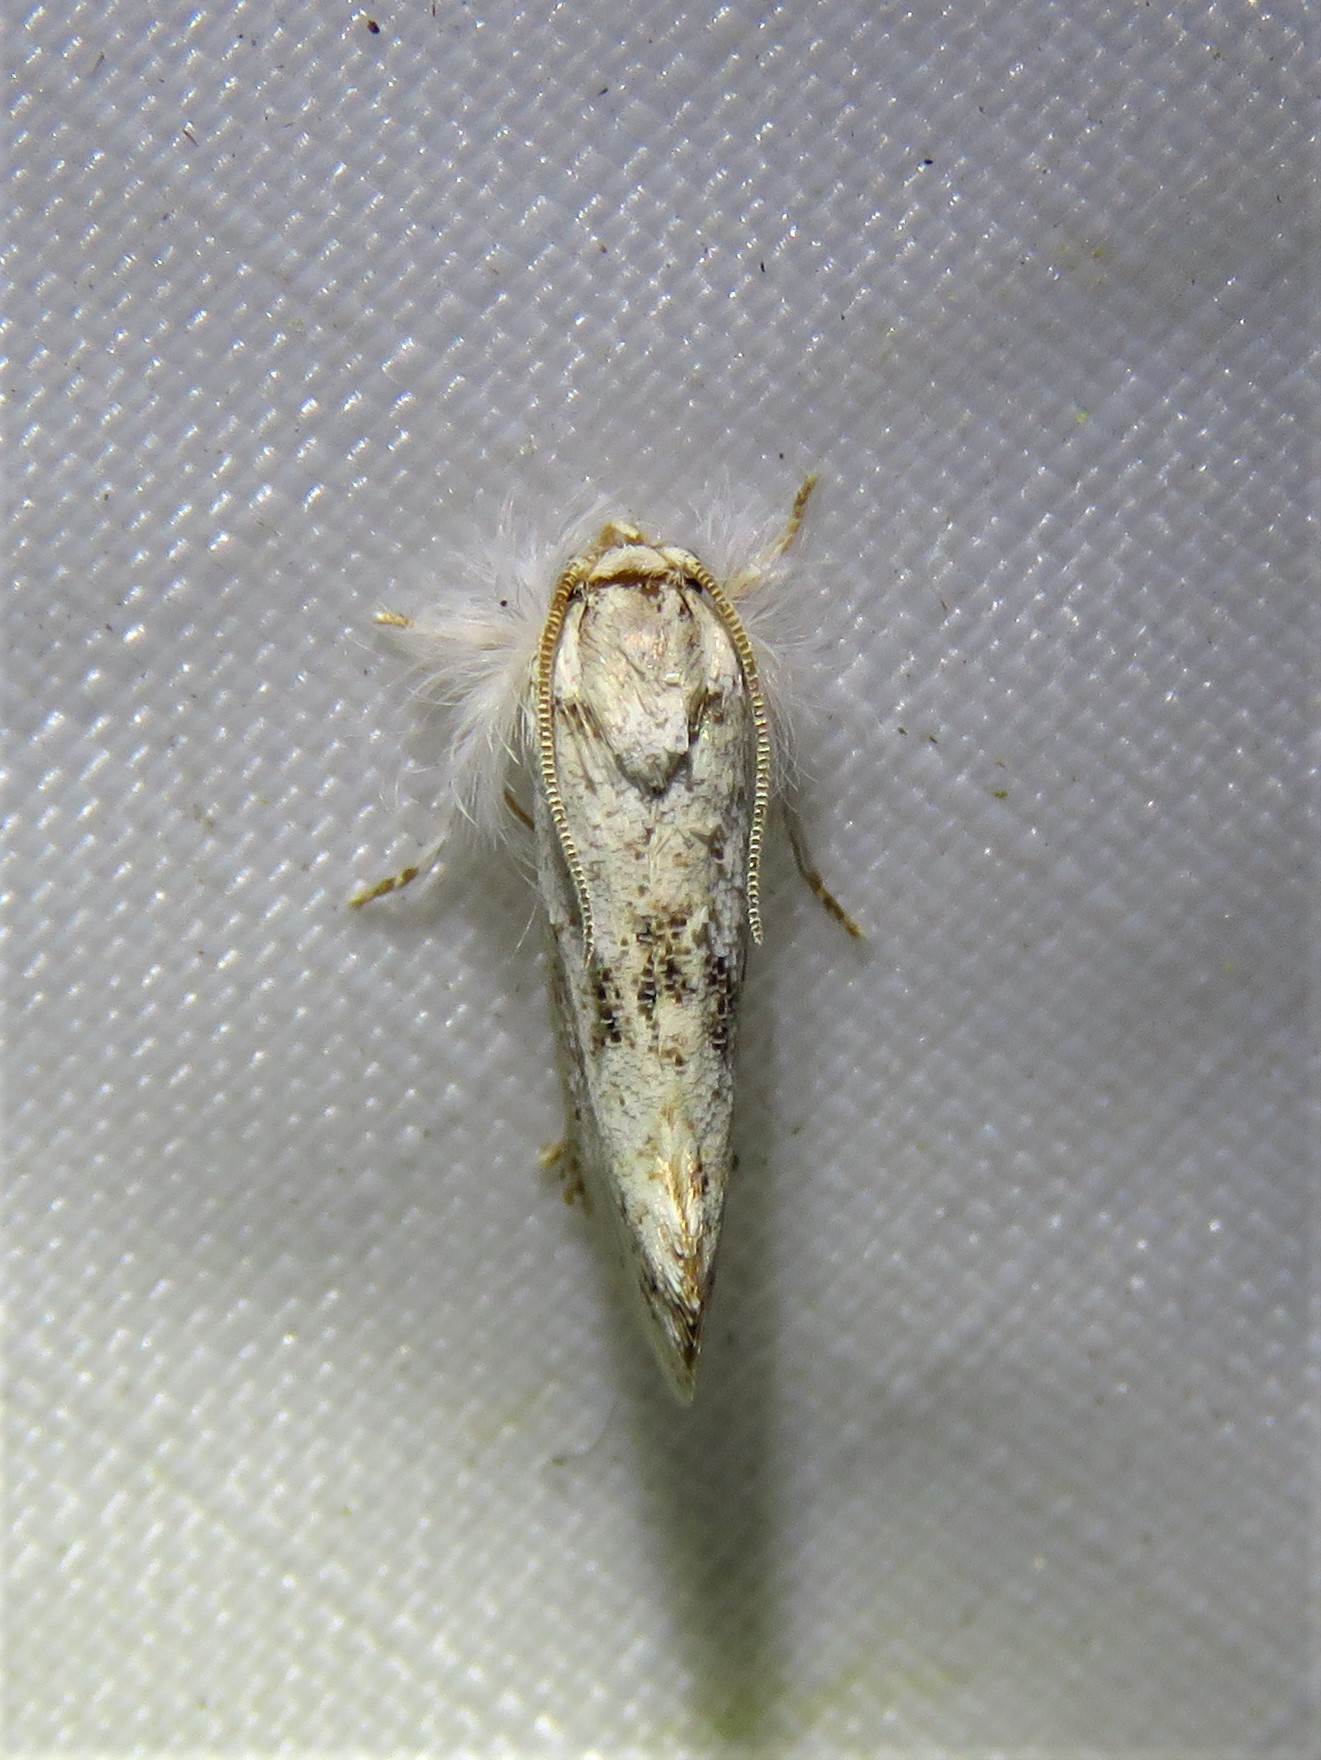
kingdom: Animalia
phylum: Arthropoda
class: Insecta
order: Lepidoptera
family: Tineidae
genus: Acrolophus
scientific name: Acrolophus mycetophagus
